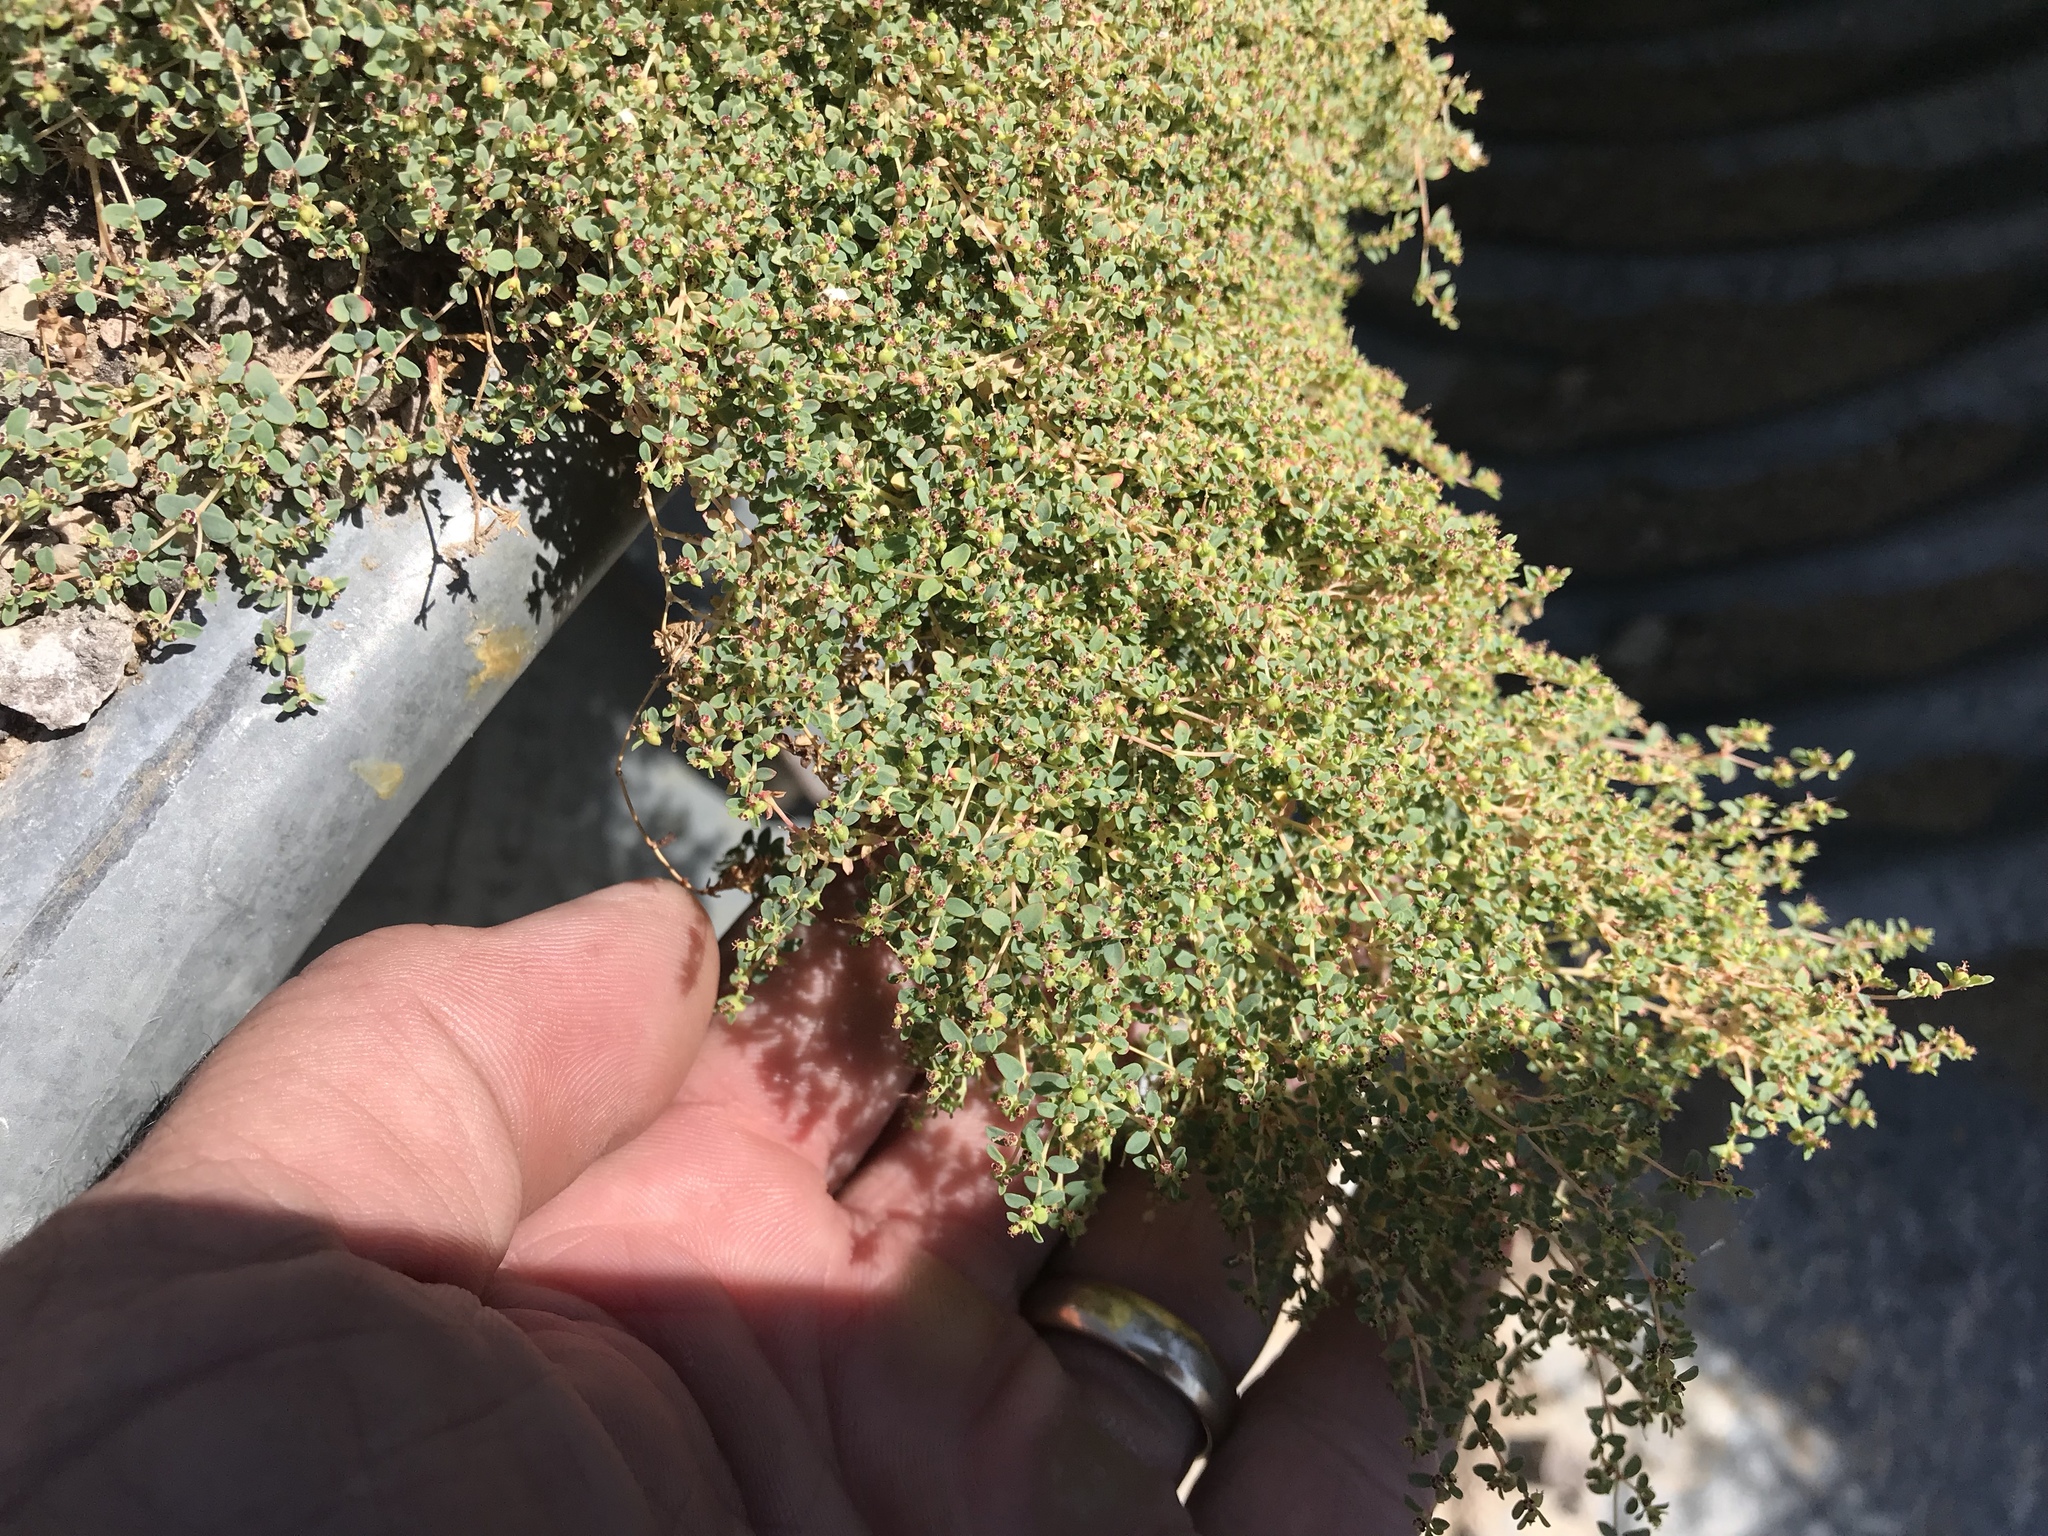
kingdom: Plantae
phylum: Tracheophyta
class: Magnoliopsida
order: Malpighiales
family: Euphorbiaceae
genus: Euphorbia
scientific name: Euphorbia polycarpa
